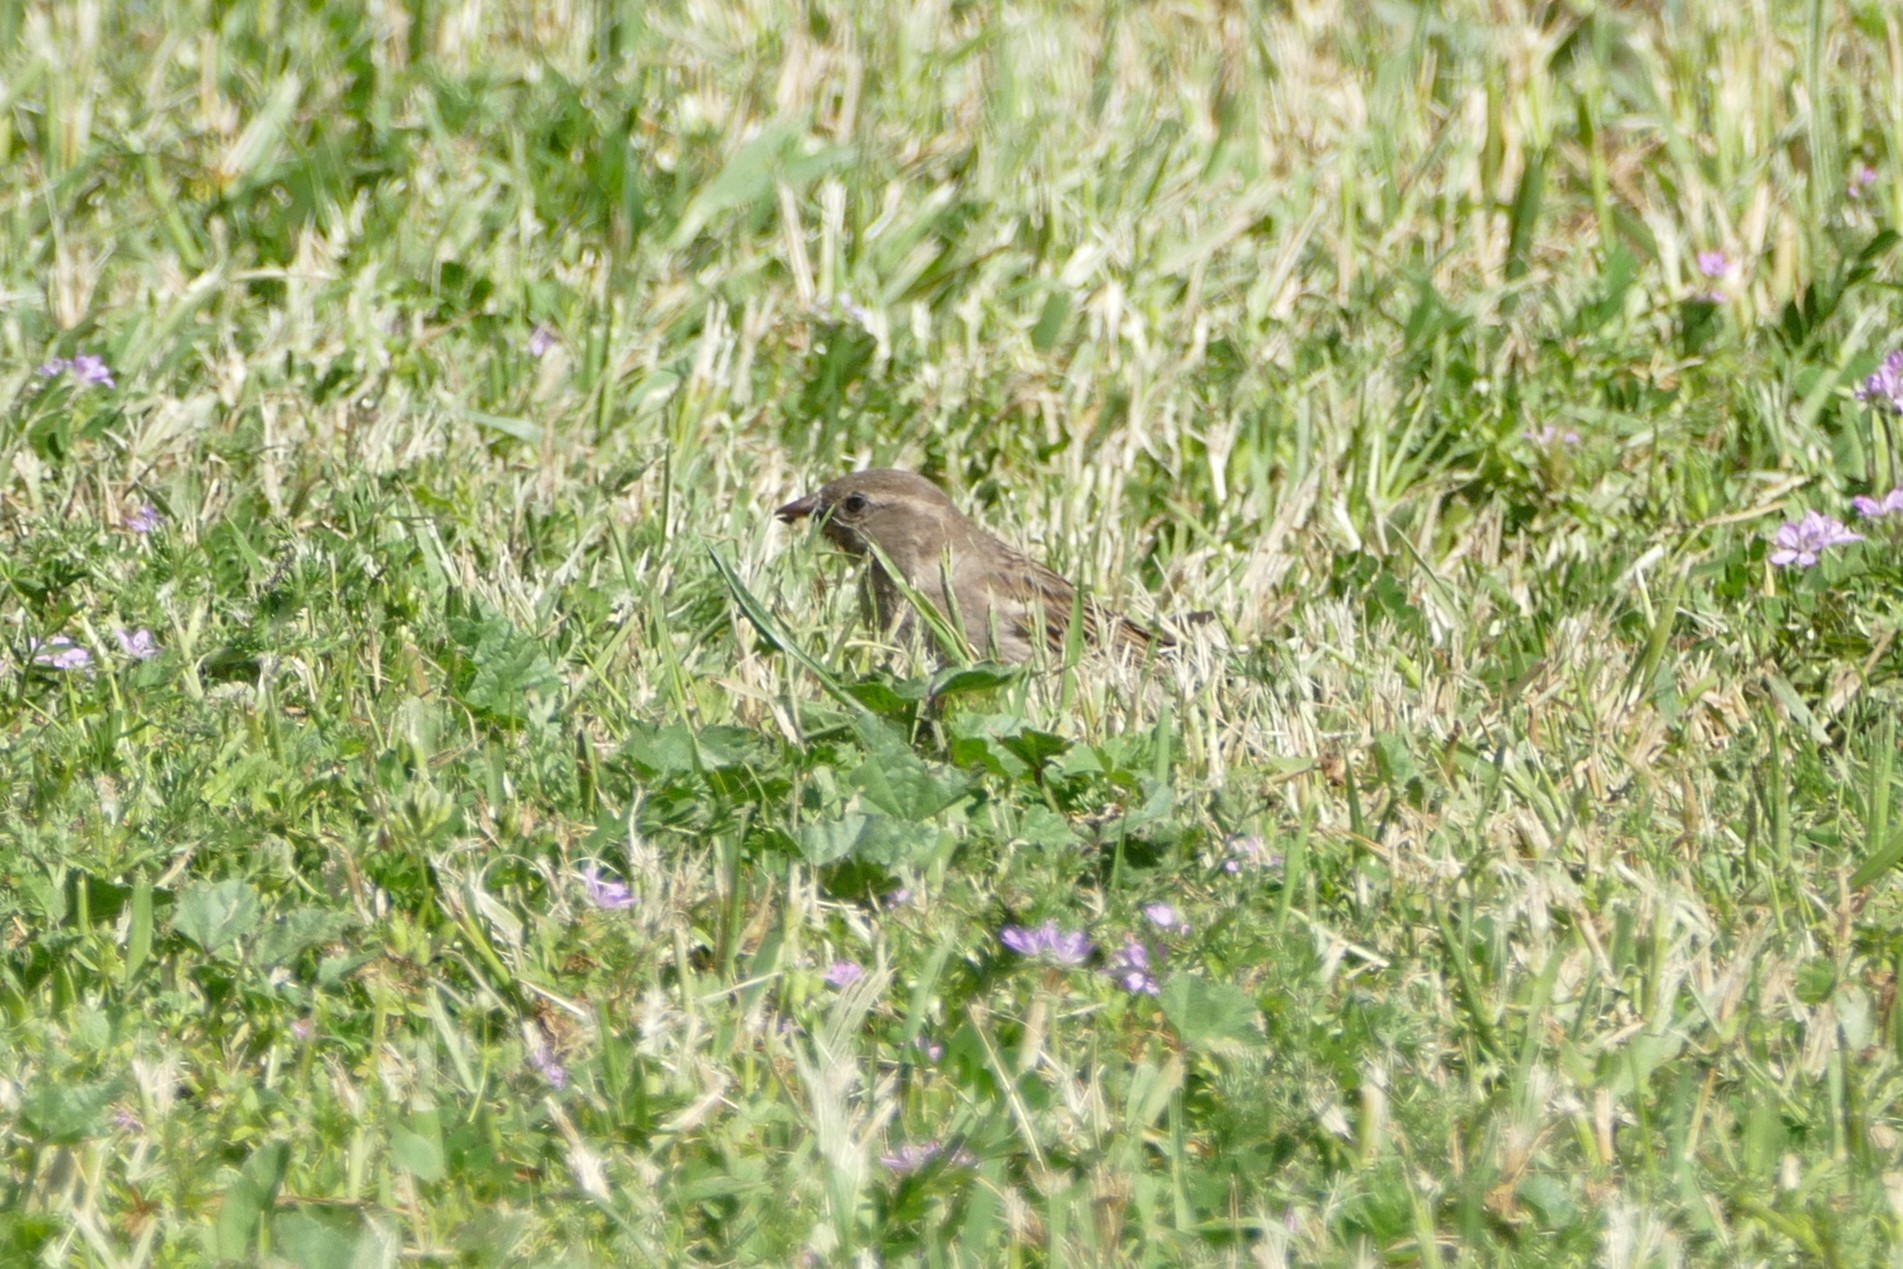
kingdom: Animalia
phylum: Chordata
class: Aves
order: Passeriformes
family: Passeridae
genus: Passer
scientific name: Passer domesticus
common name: House sparrow
